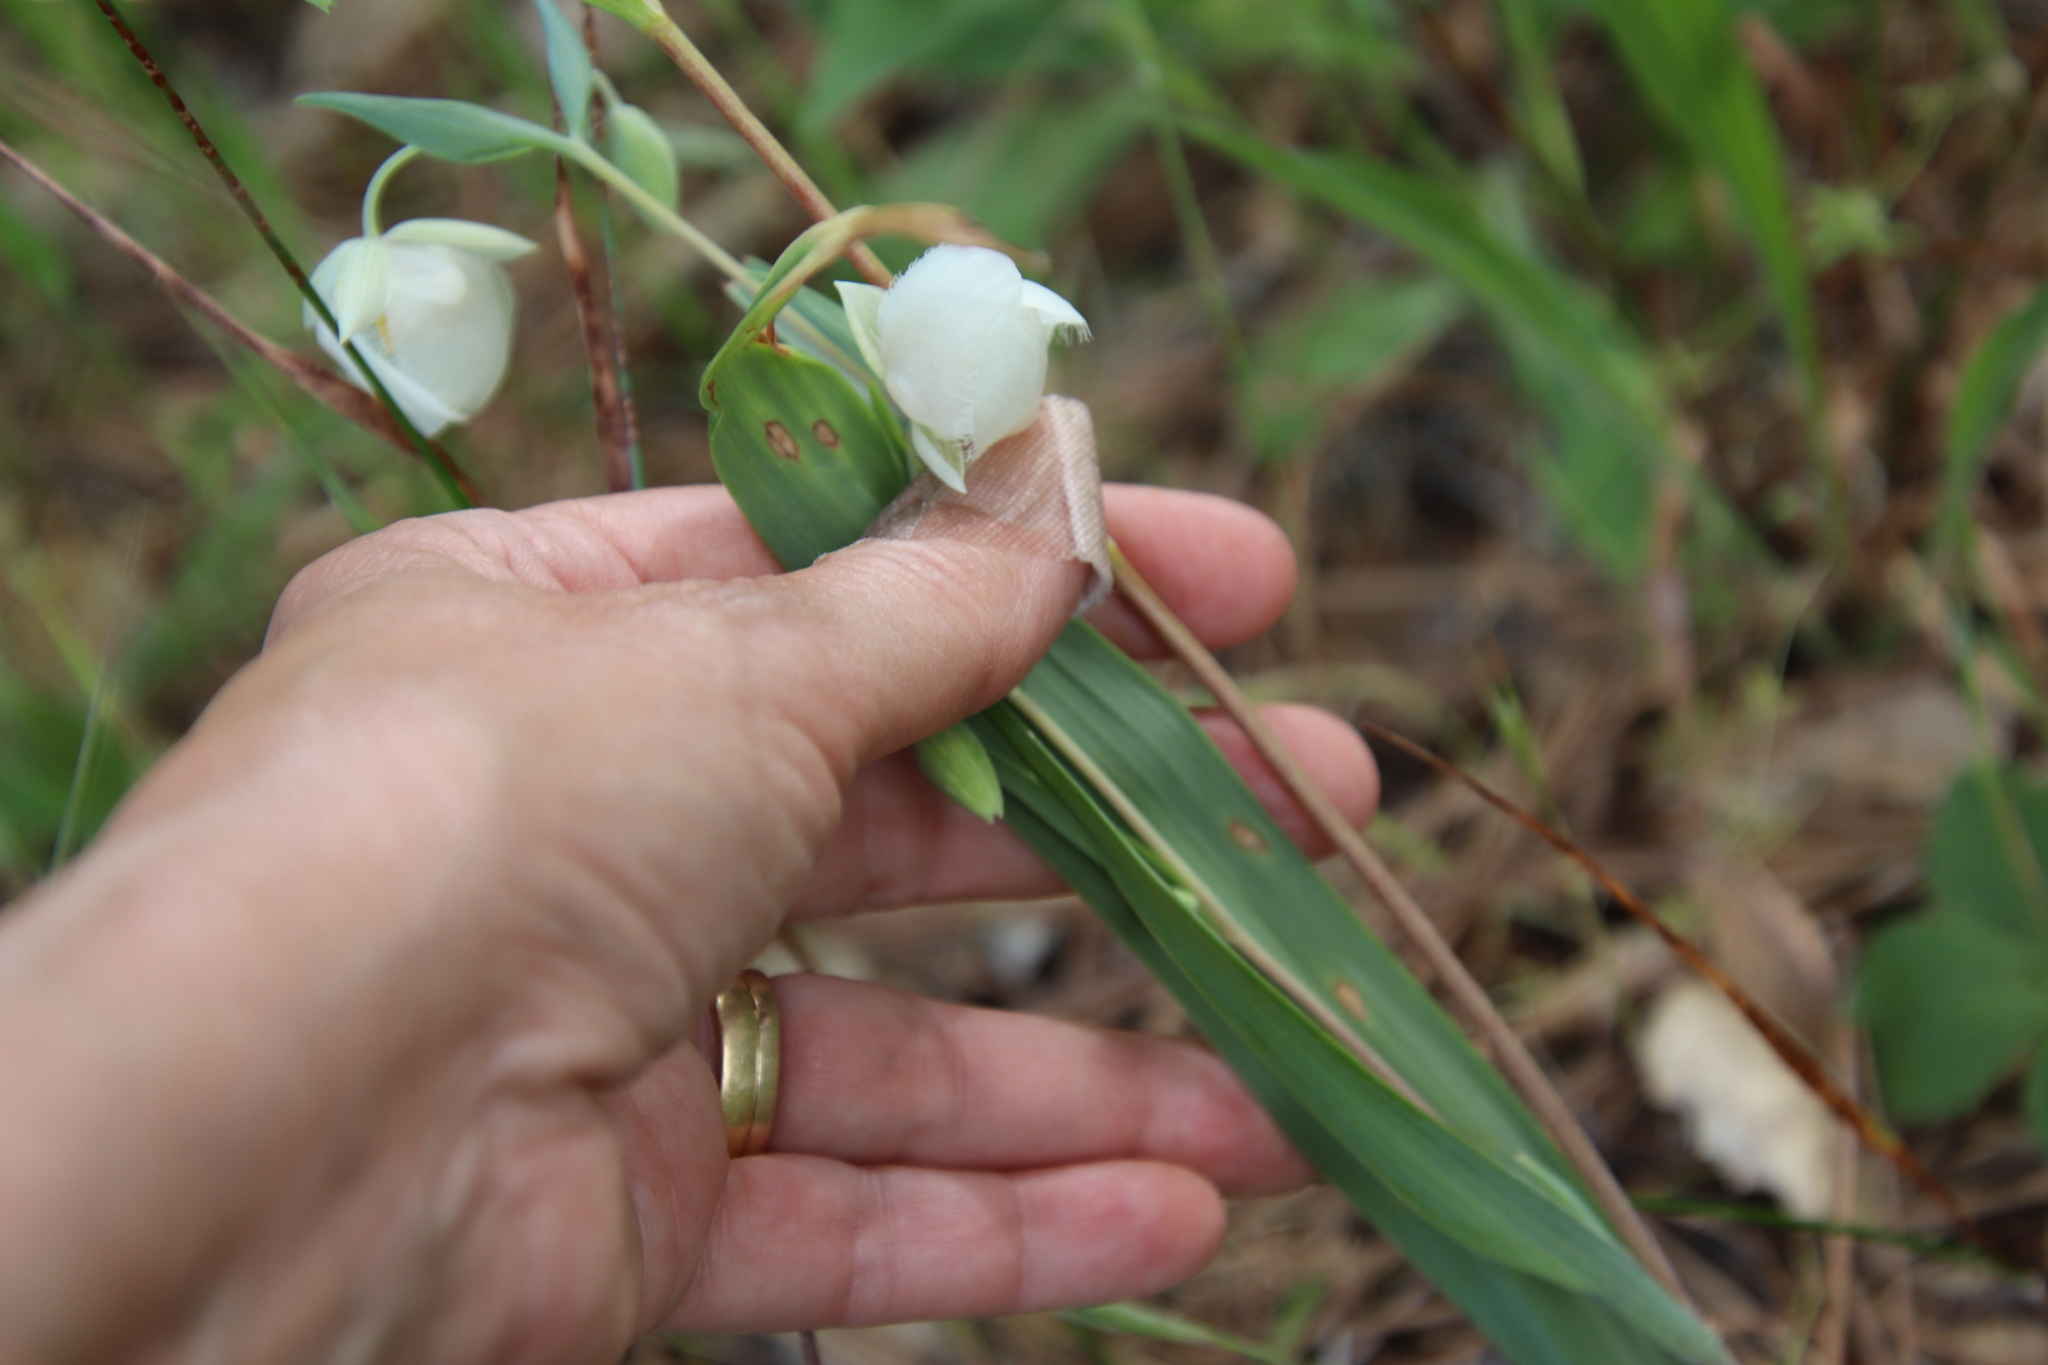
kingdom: Plantae
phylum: Tracheophyta
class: Liliopsida
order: Liliales
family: Liliaceae
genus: Calochortus
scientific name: Calochortus albus
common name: Fairy-lantern
